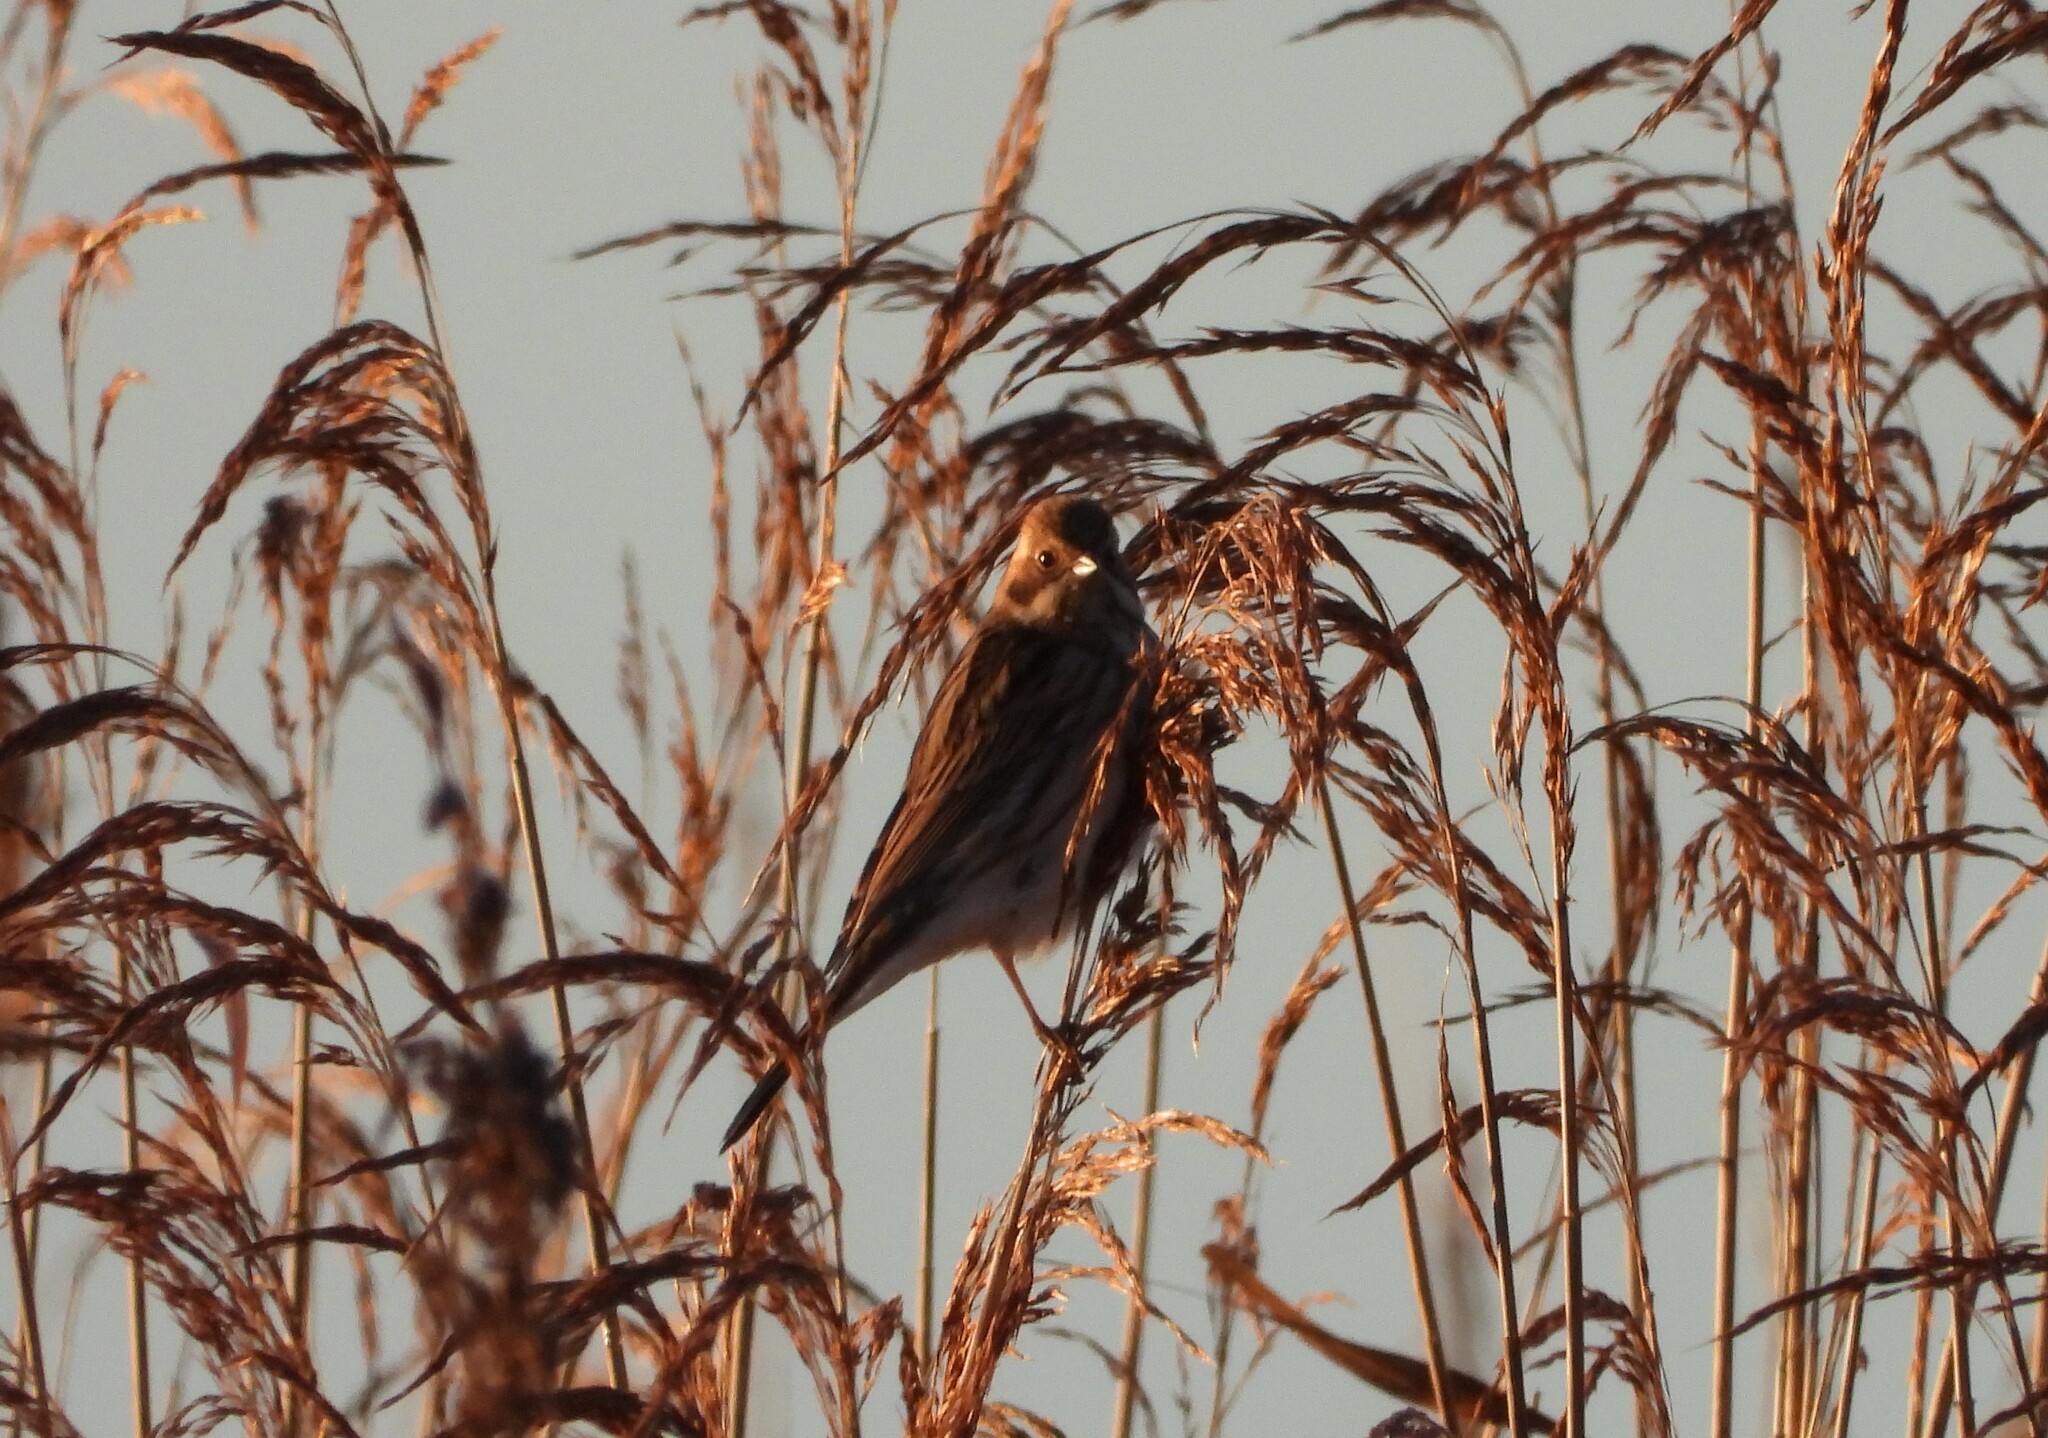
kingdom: Animalia
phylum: Chordata
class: Aves
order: Passeriformes
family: Emberizidae
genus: Emberiza
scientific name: Emberiza schoeniclus
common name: Reed bunting
